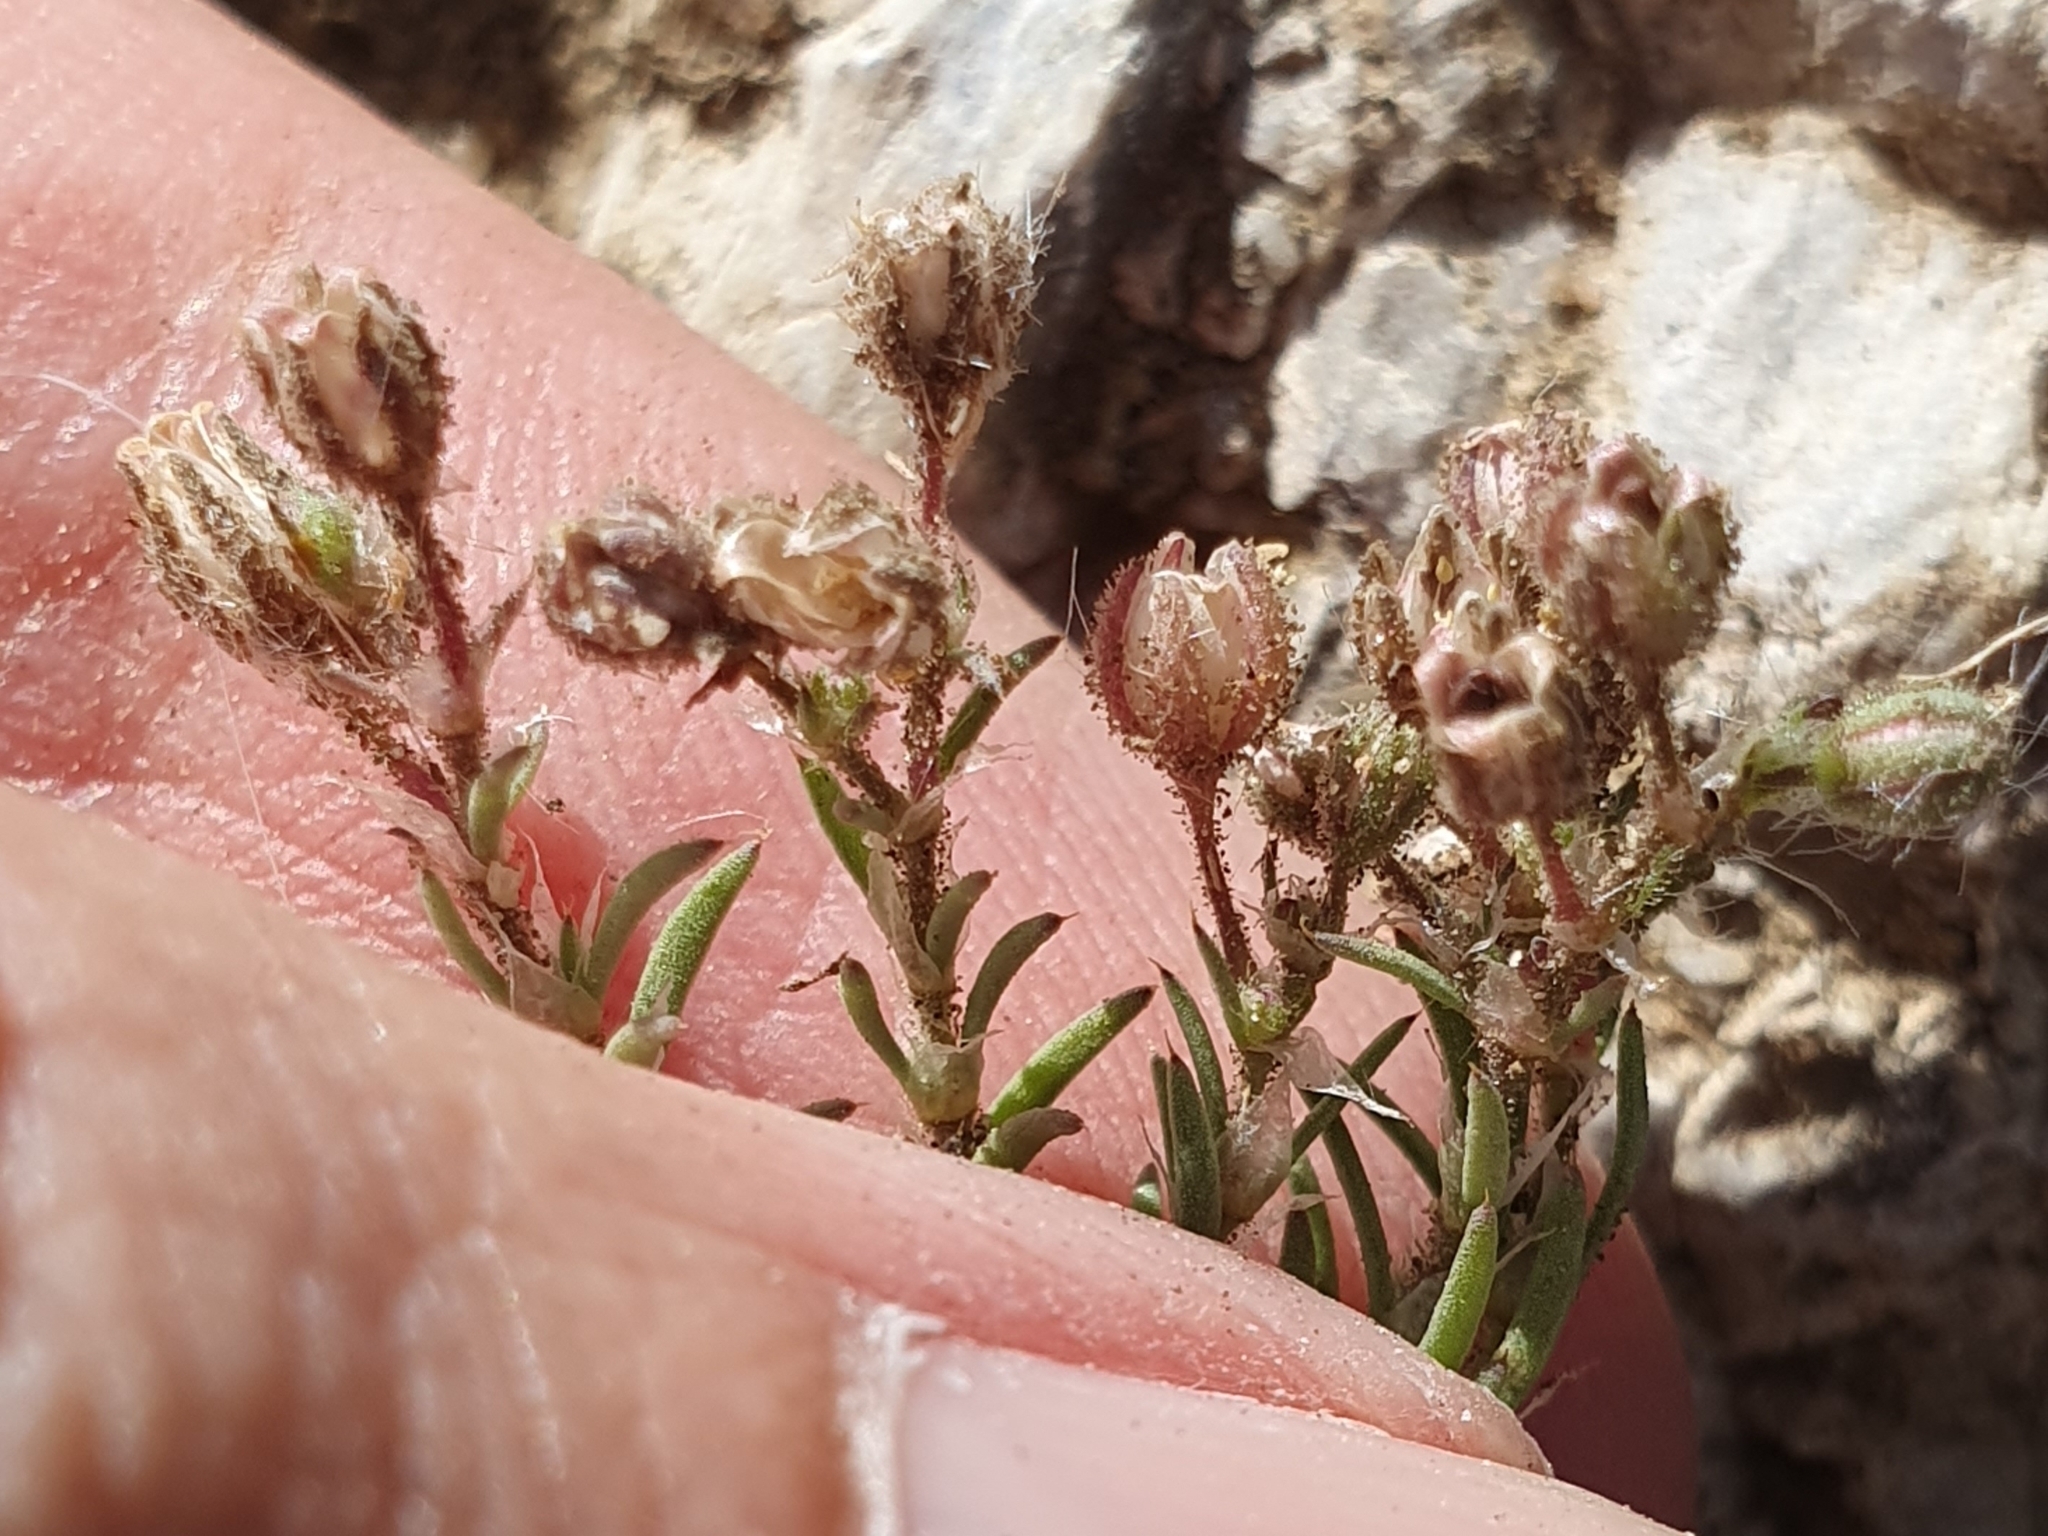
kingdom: Plantae
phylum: Tracheophyta
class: Magnoliopsida
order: Caryophyllales
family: Caryophyllaceae
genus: Spergularia
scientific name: Spergularia rubra
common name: Red sand-spurrey
